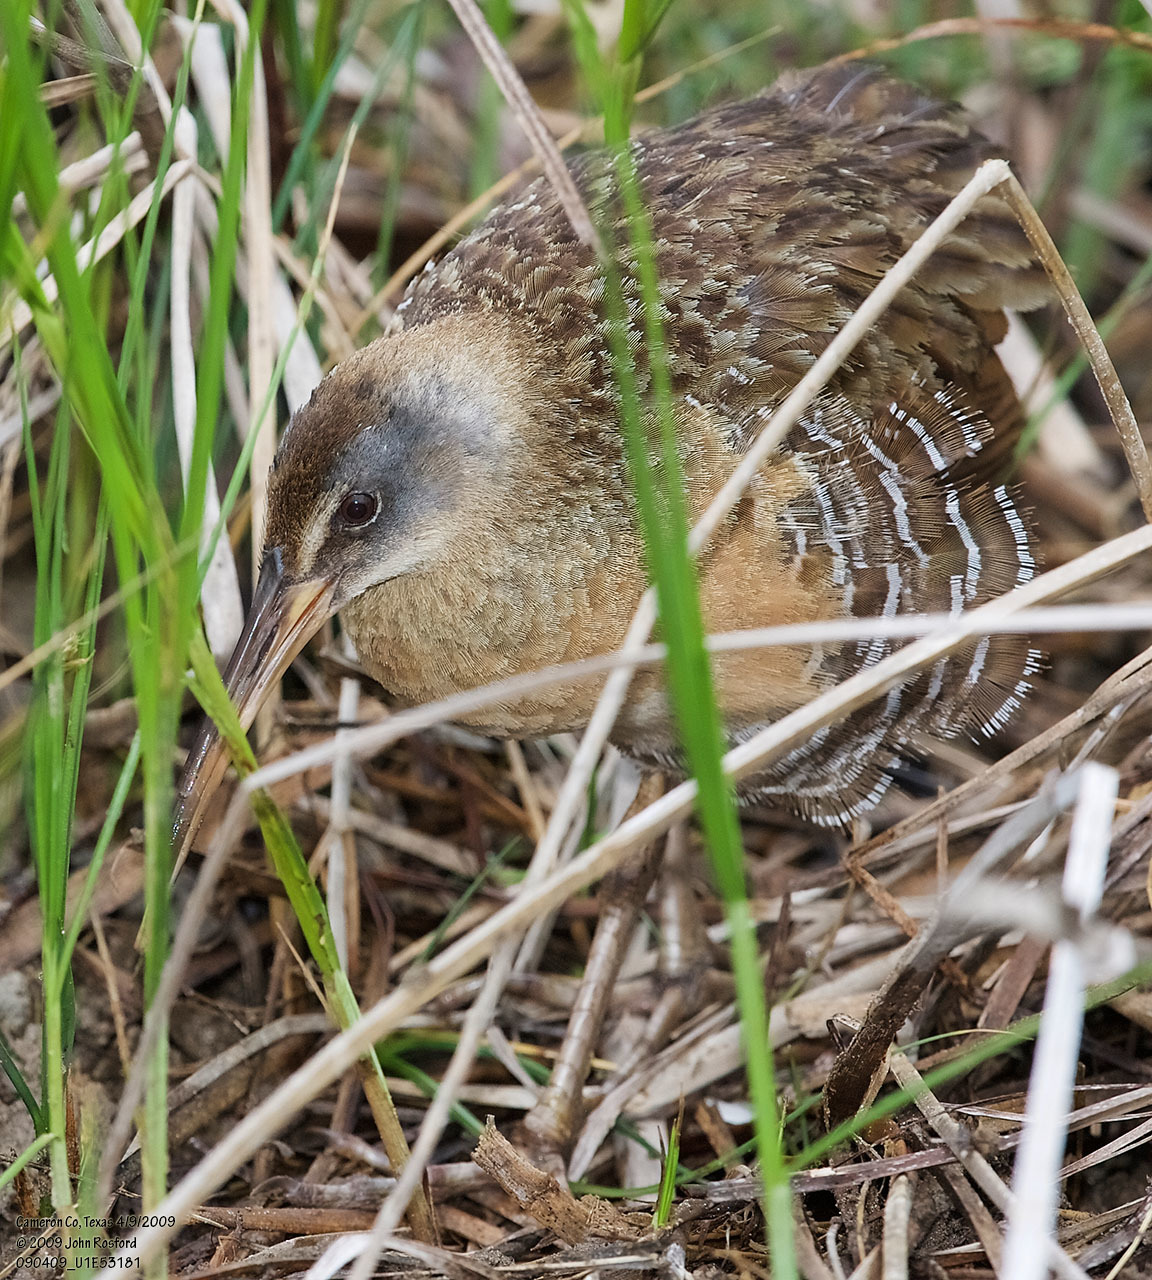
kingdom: Animalia
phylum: Chordata
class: Aves
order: Gruiformes
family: Rallidae
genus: Rallus
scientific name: Rallus crepitans
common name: Clapper rail
